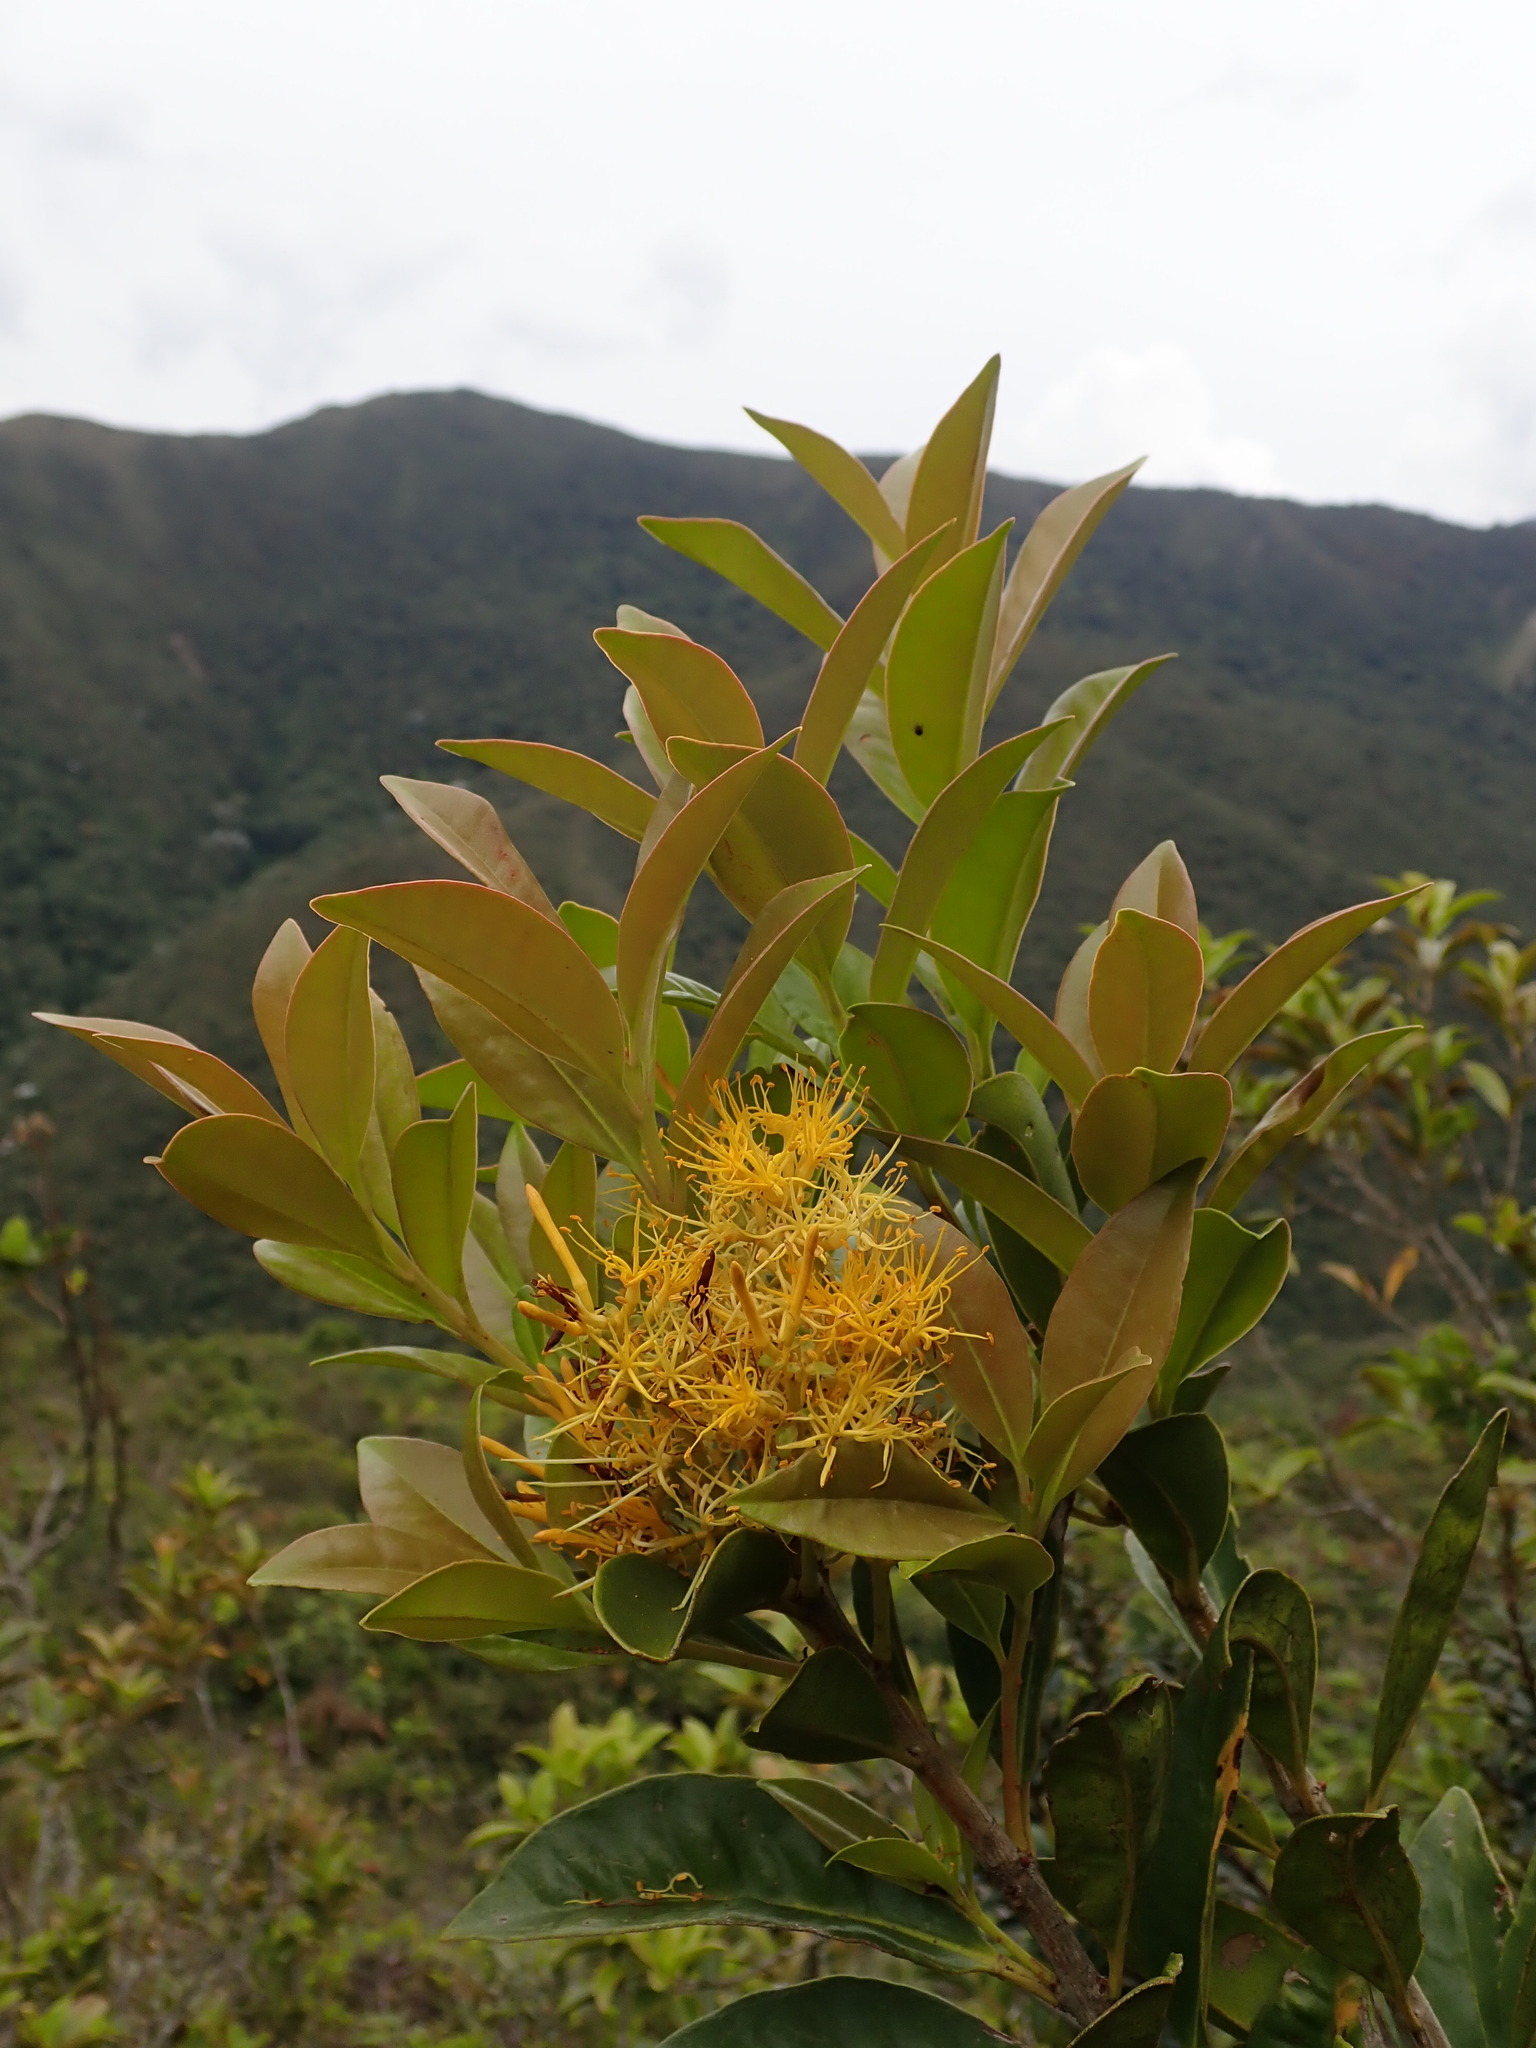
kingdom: Plantae
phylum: Tracheophyta
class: Magnoliopsida
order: Santalales
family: Loranthaceae
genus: Gaiadendron
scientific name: Gaiadendron punctatum
